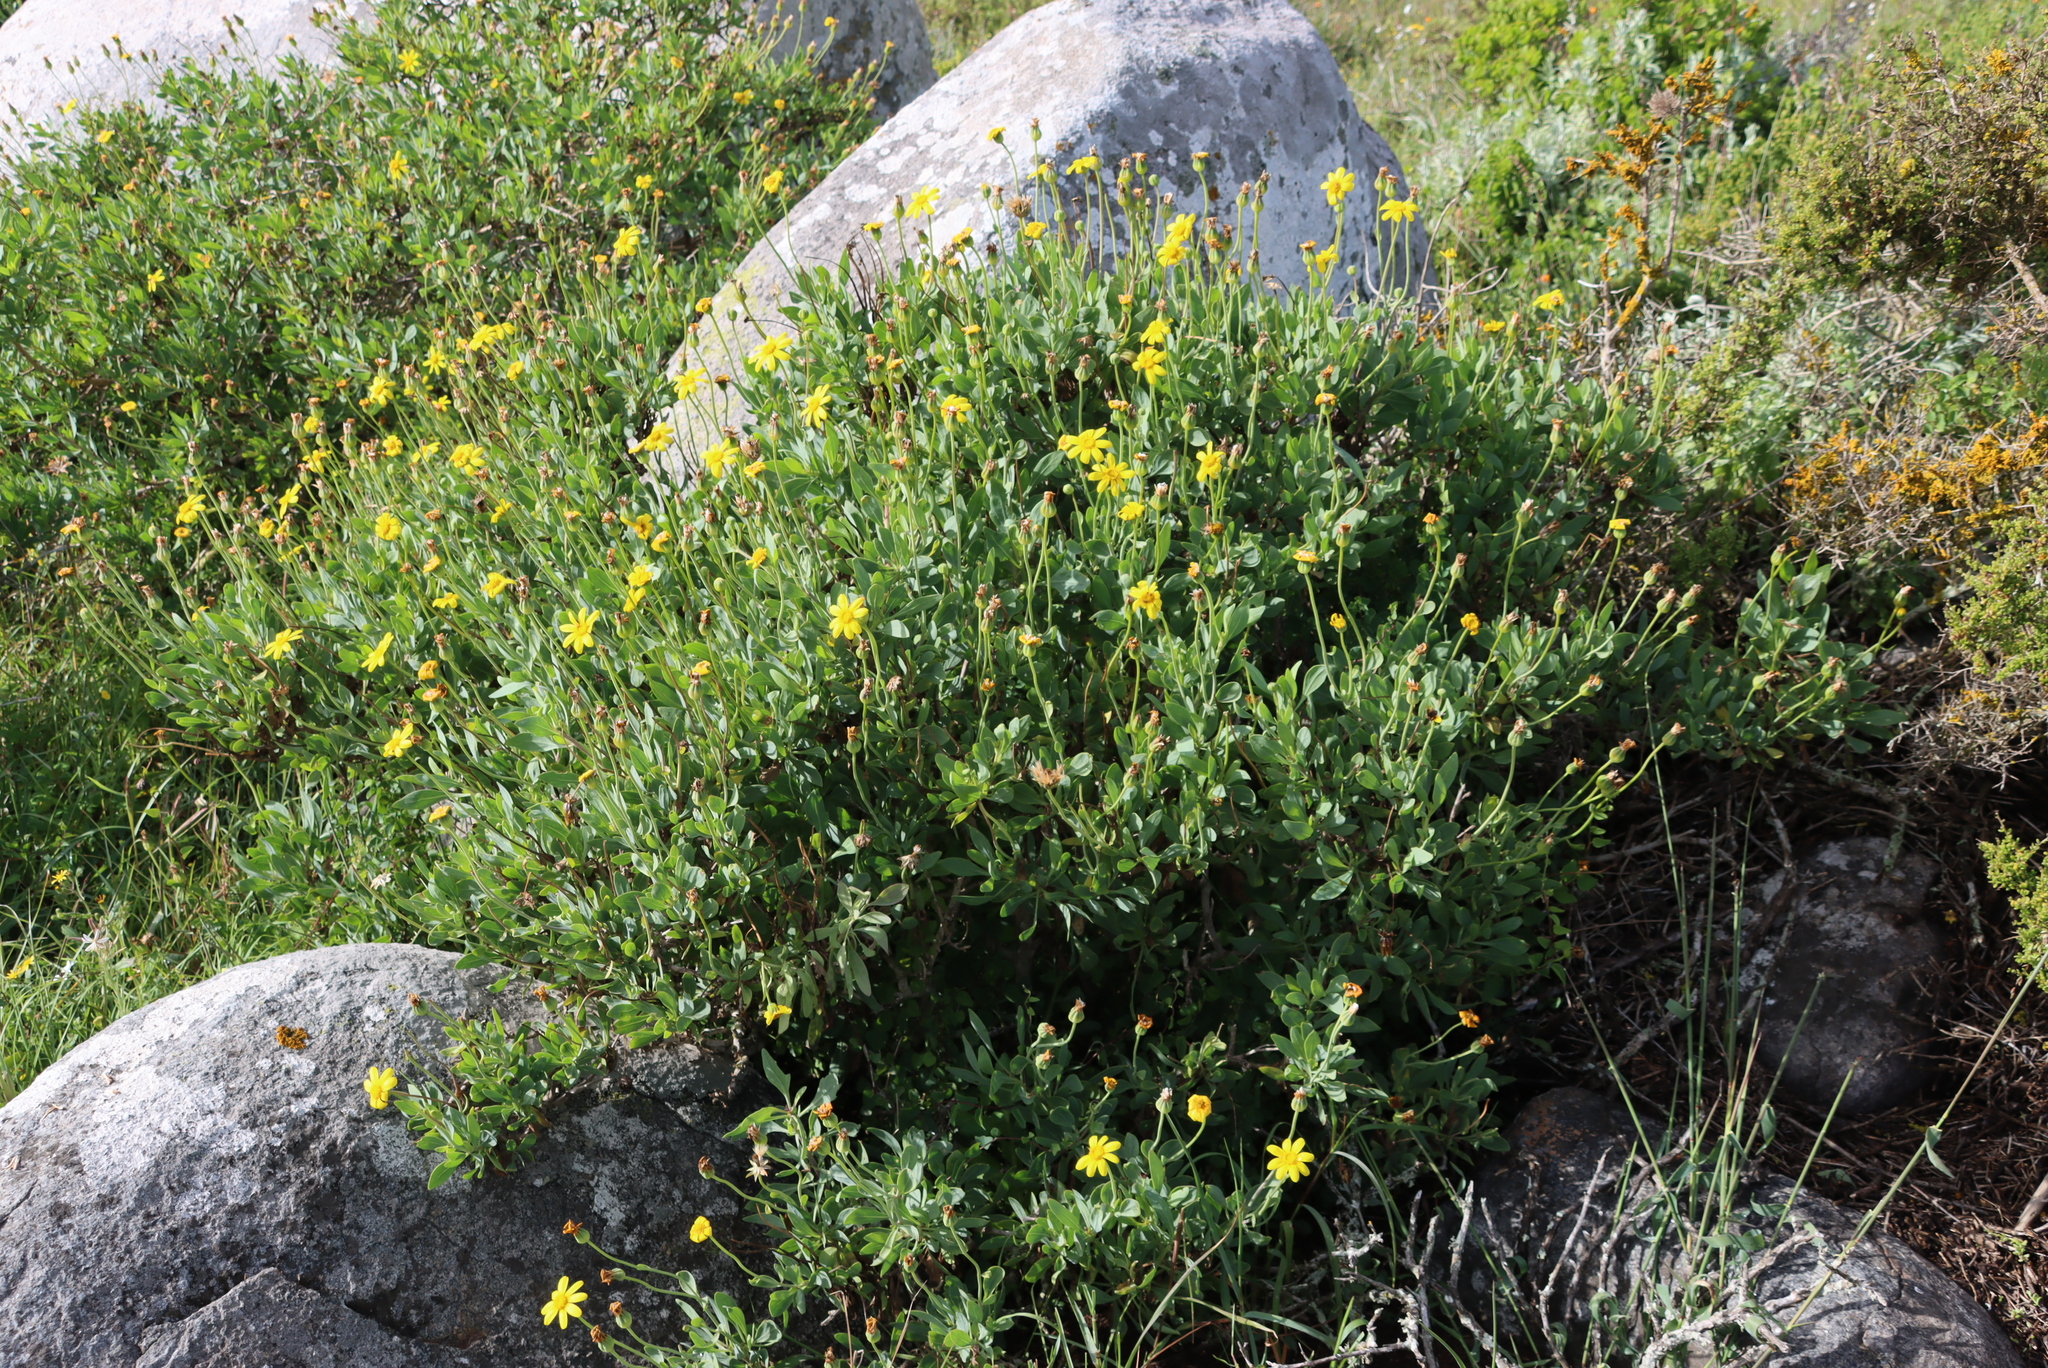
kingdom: Plantae
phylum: Tracheophyta
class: Magnoliopsida
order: Asterales
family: Asteraceae
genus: Othonna
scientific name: Othonna coronopifolia
